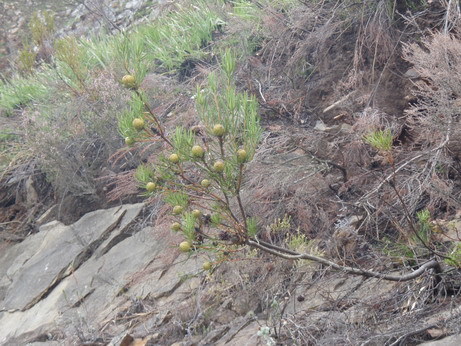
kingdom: Plantae
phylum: Tracheophyta
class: Magnoliopsida
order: Proteales
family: Proteaceae
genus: Leucadendron
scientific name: Leucadendron rourkei
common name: Uniondale conebush
